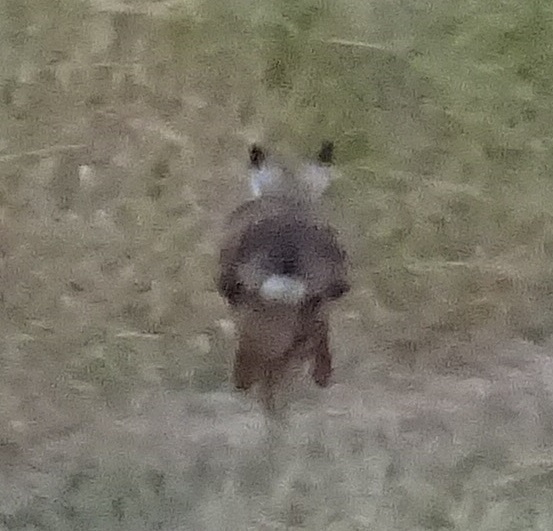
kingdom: Animalia
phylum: Chordata
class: Mammalia
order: Lagomorpha
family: Leporidae
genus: Lepus
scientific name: Lepus europaeus
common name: European hare
